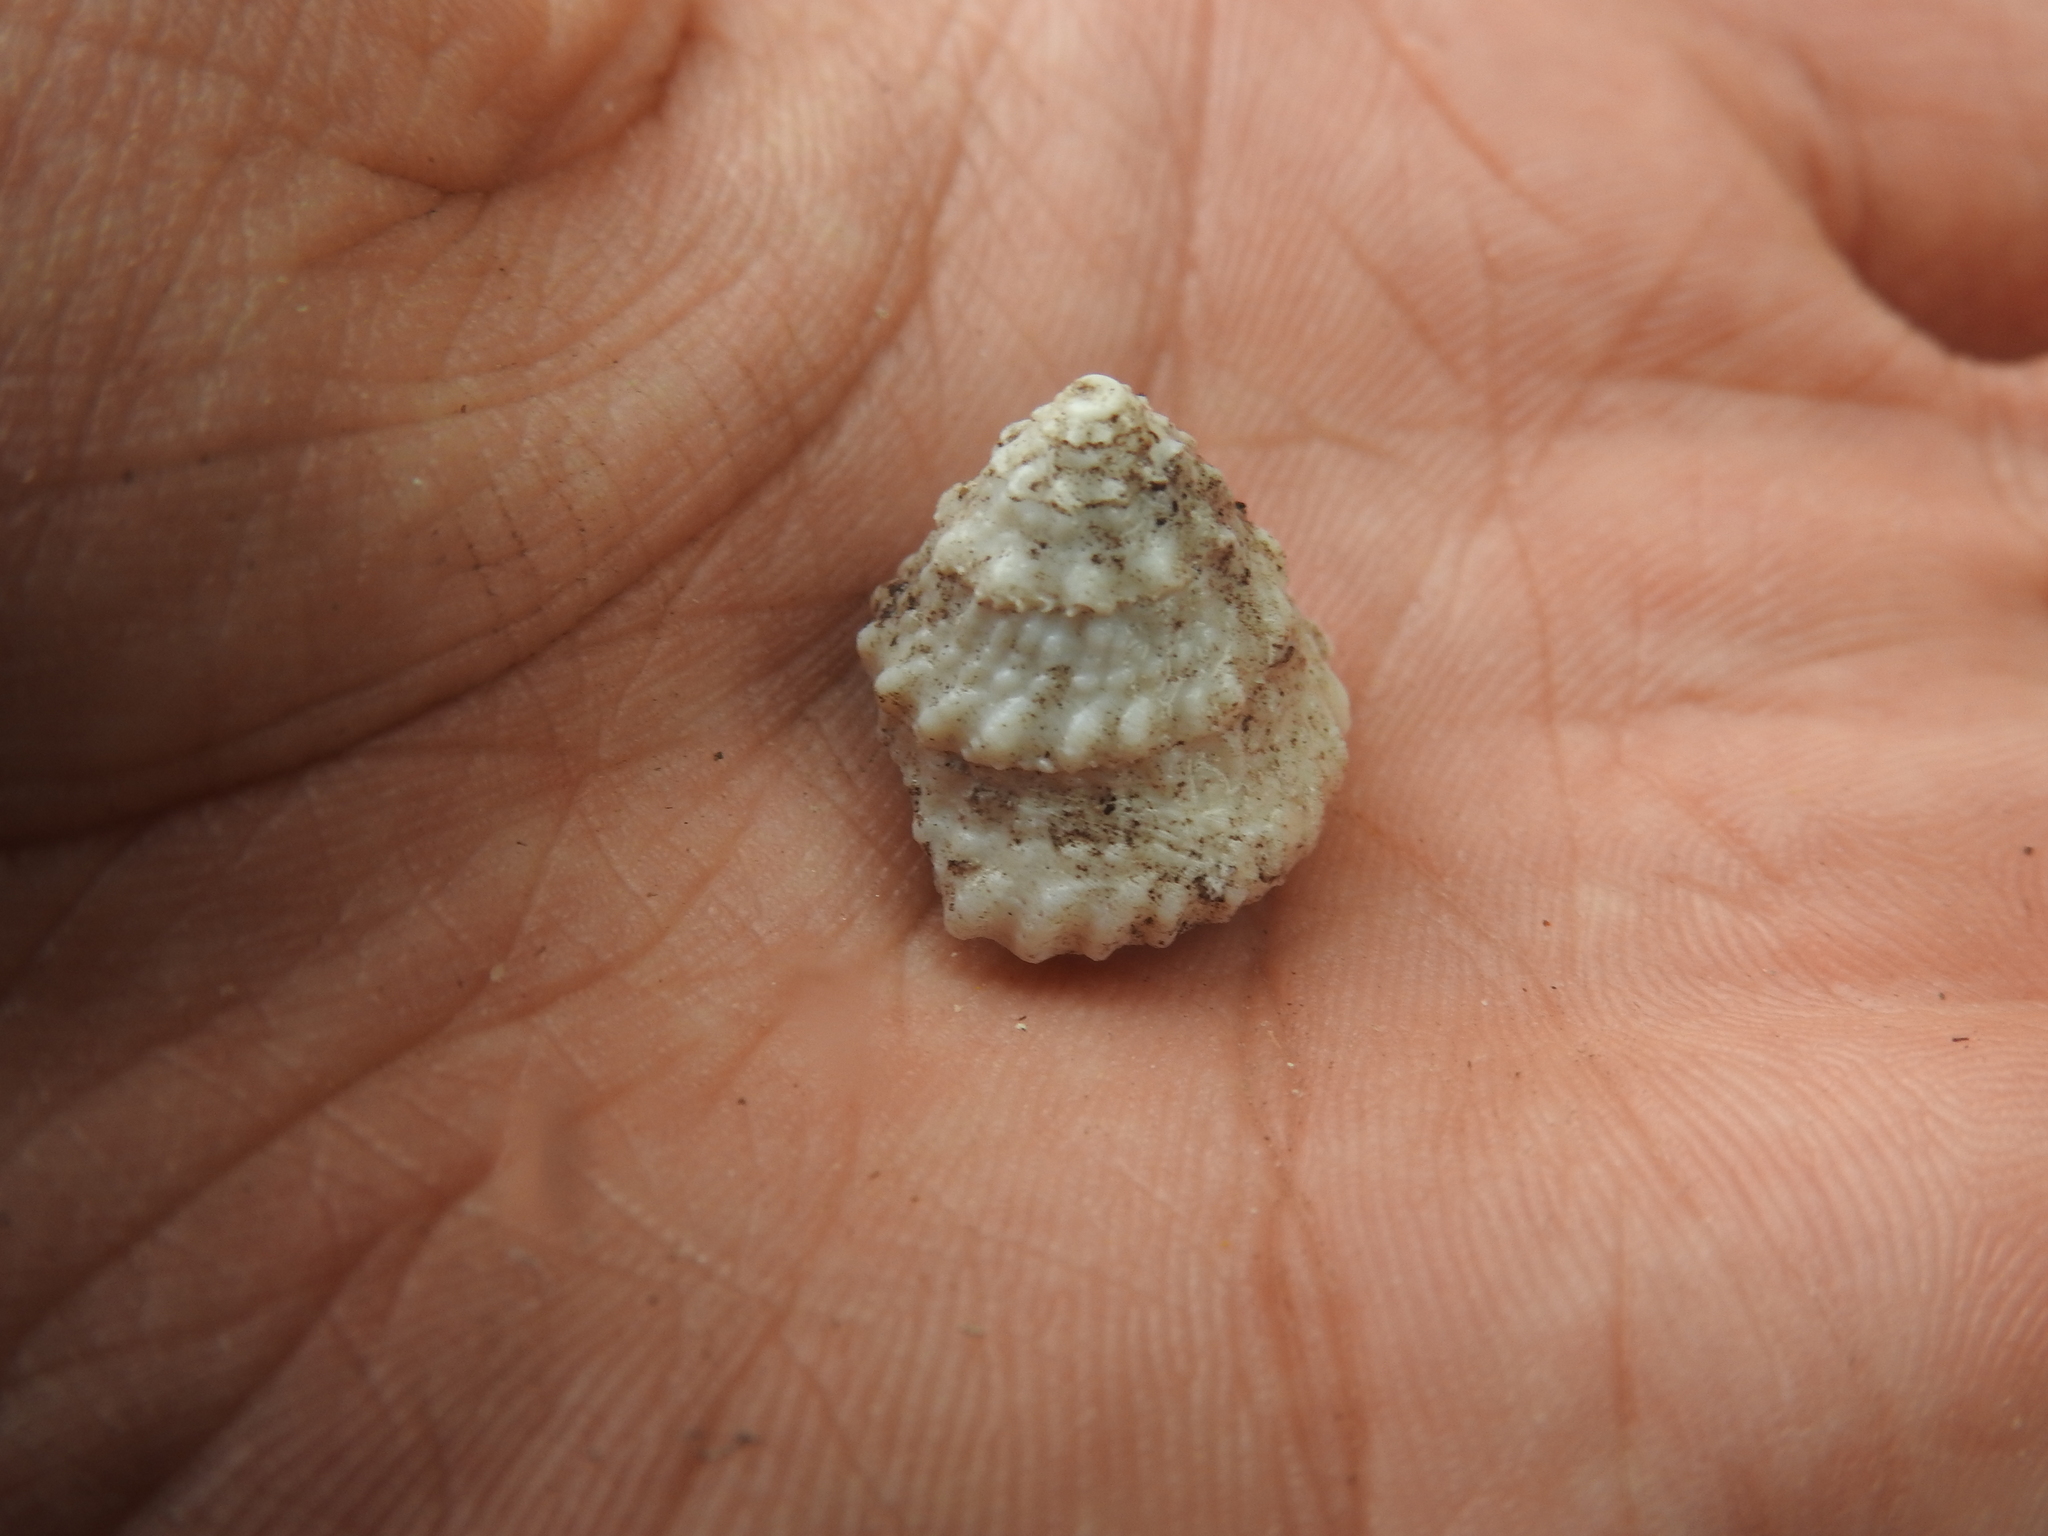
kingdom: Animalia
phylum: Mollusca
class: Gastropoda
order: Trochida
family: Turbinidae
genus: Lithopoma
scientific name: Lithopoma americanum
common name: American starsnail
